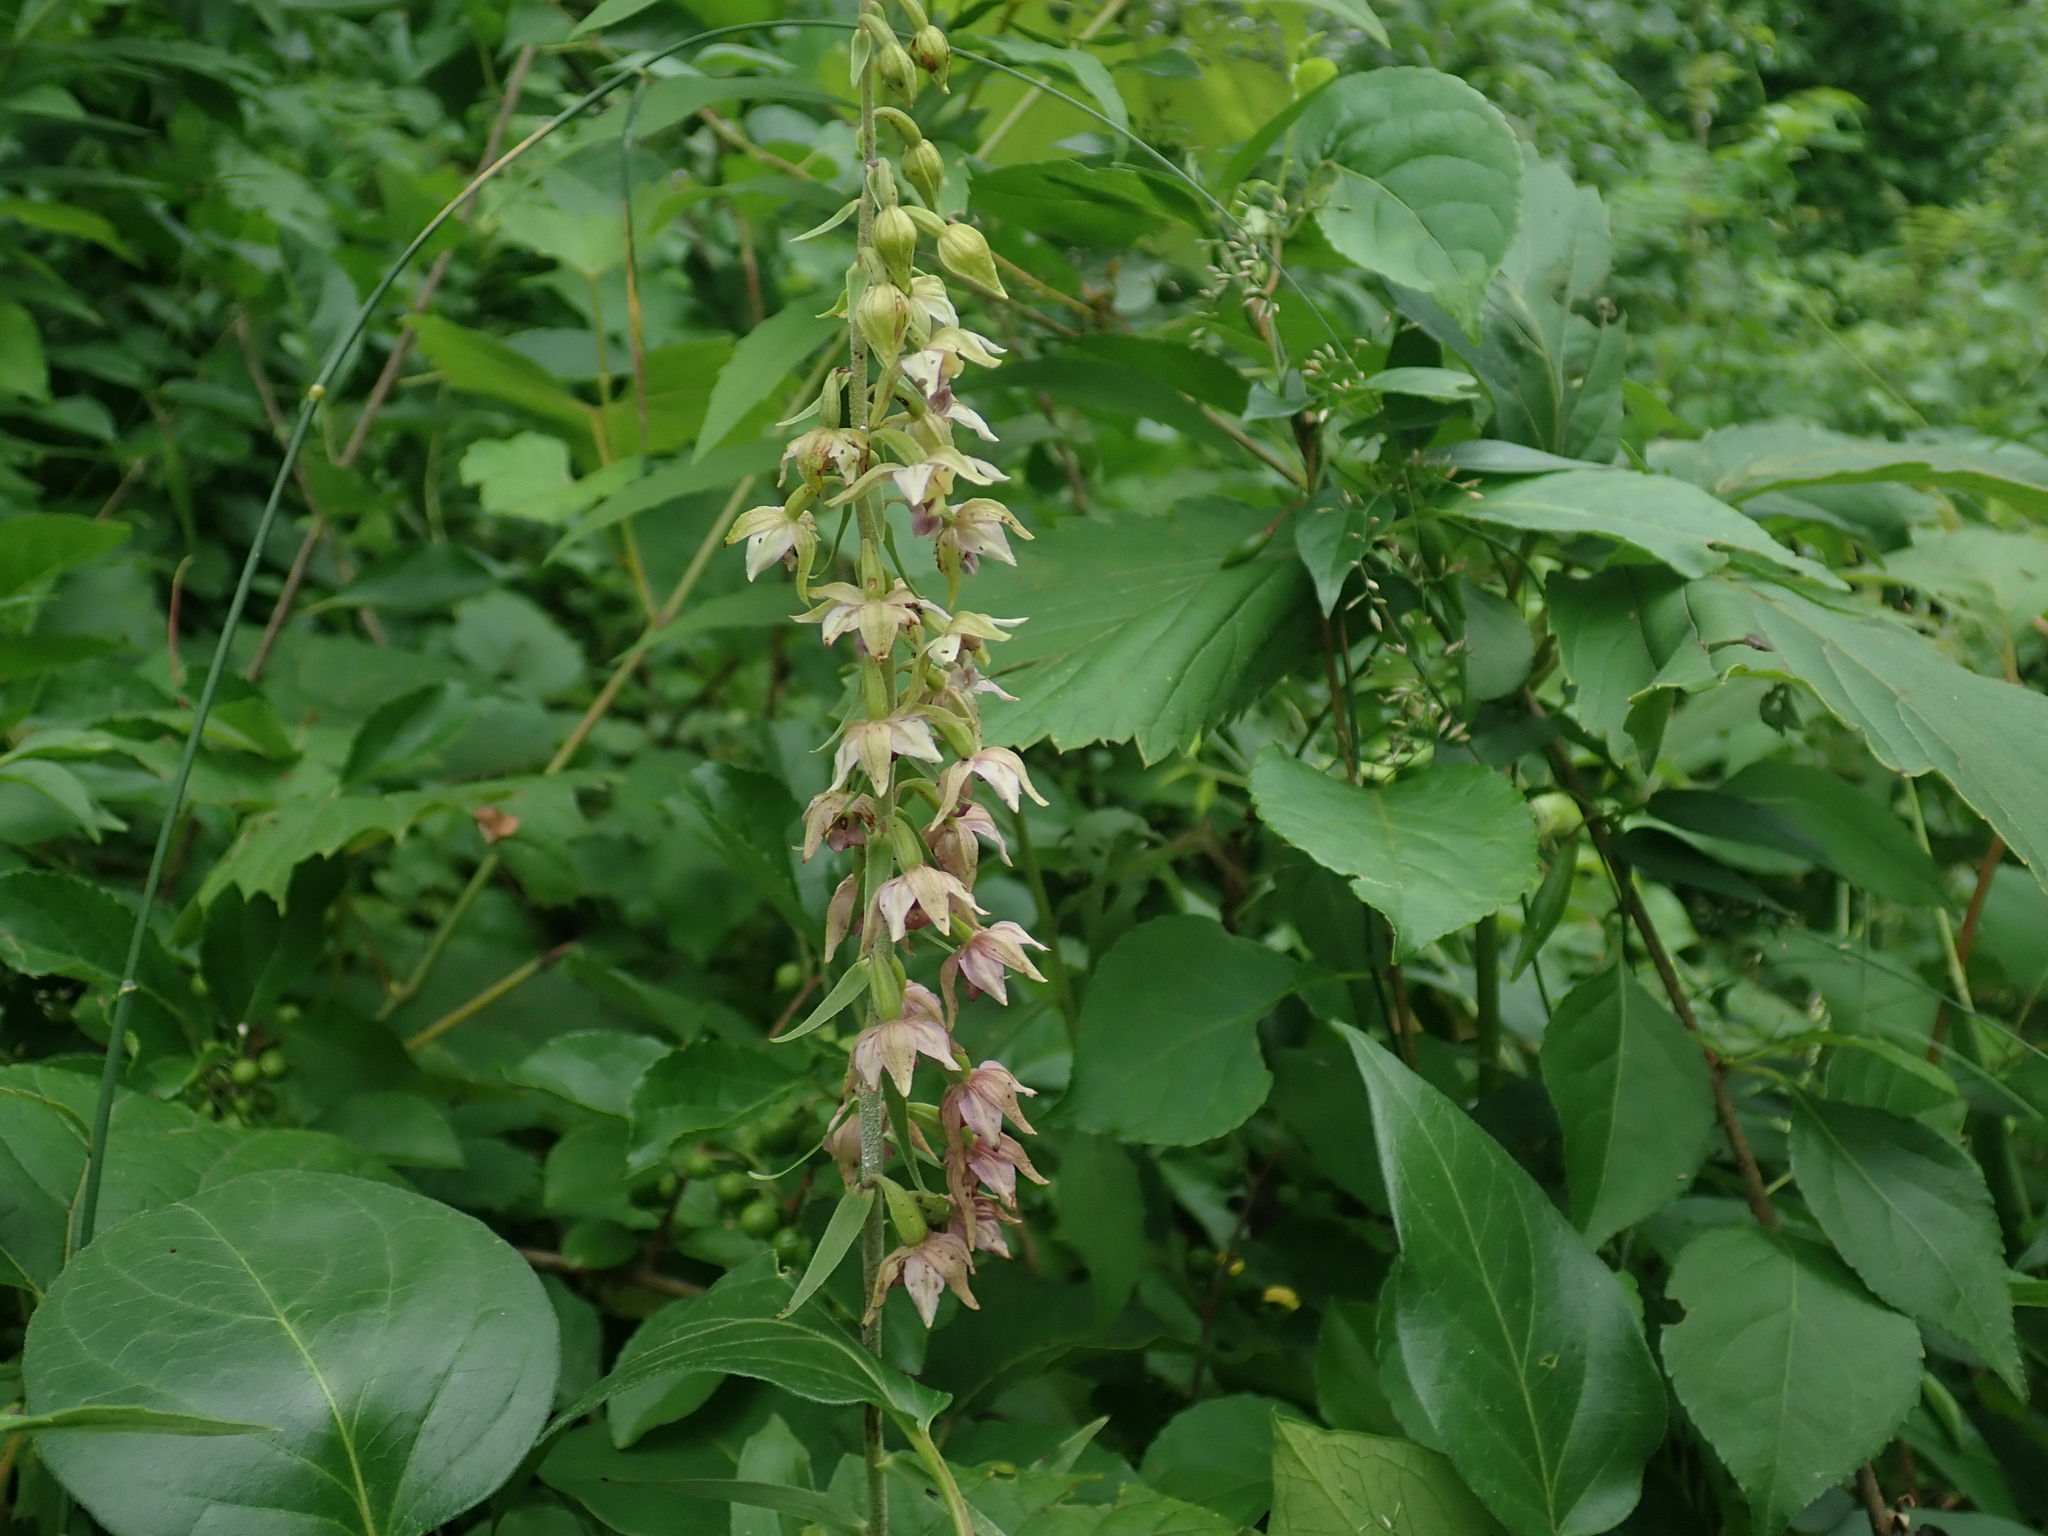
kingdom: Plantae
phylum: Tracheophyta
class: Liliopsida
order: Asparagales
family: Orchidaceae
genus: Epipactis
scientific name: Epipactis helleborine
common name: Broad-leaved helleborine
